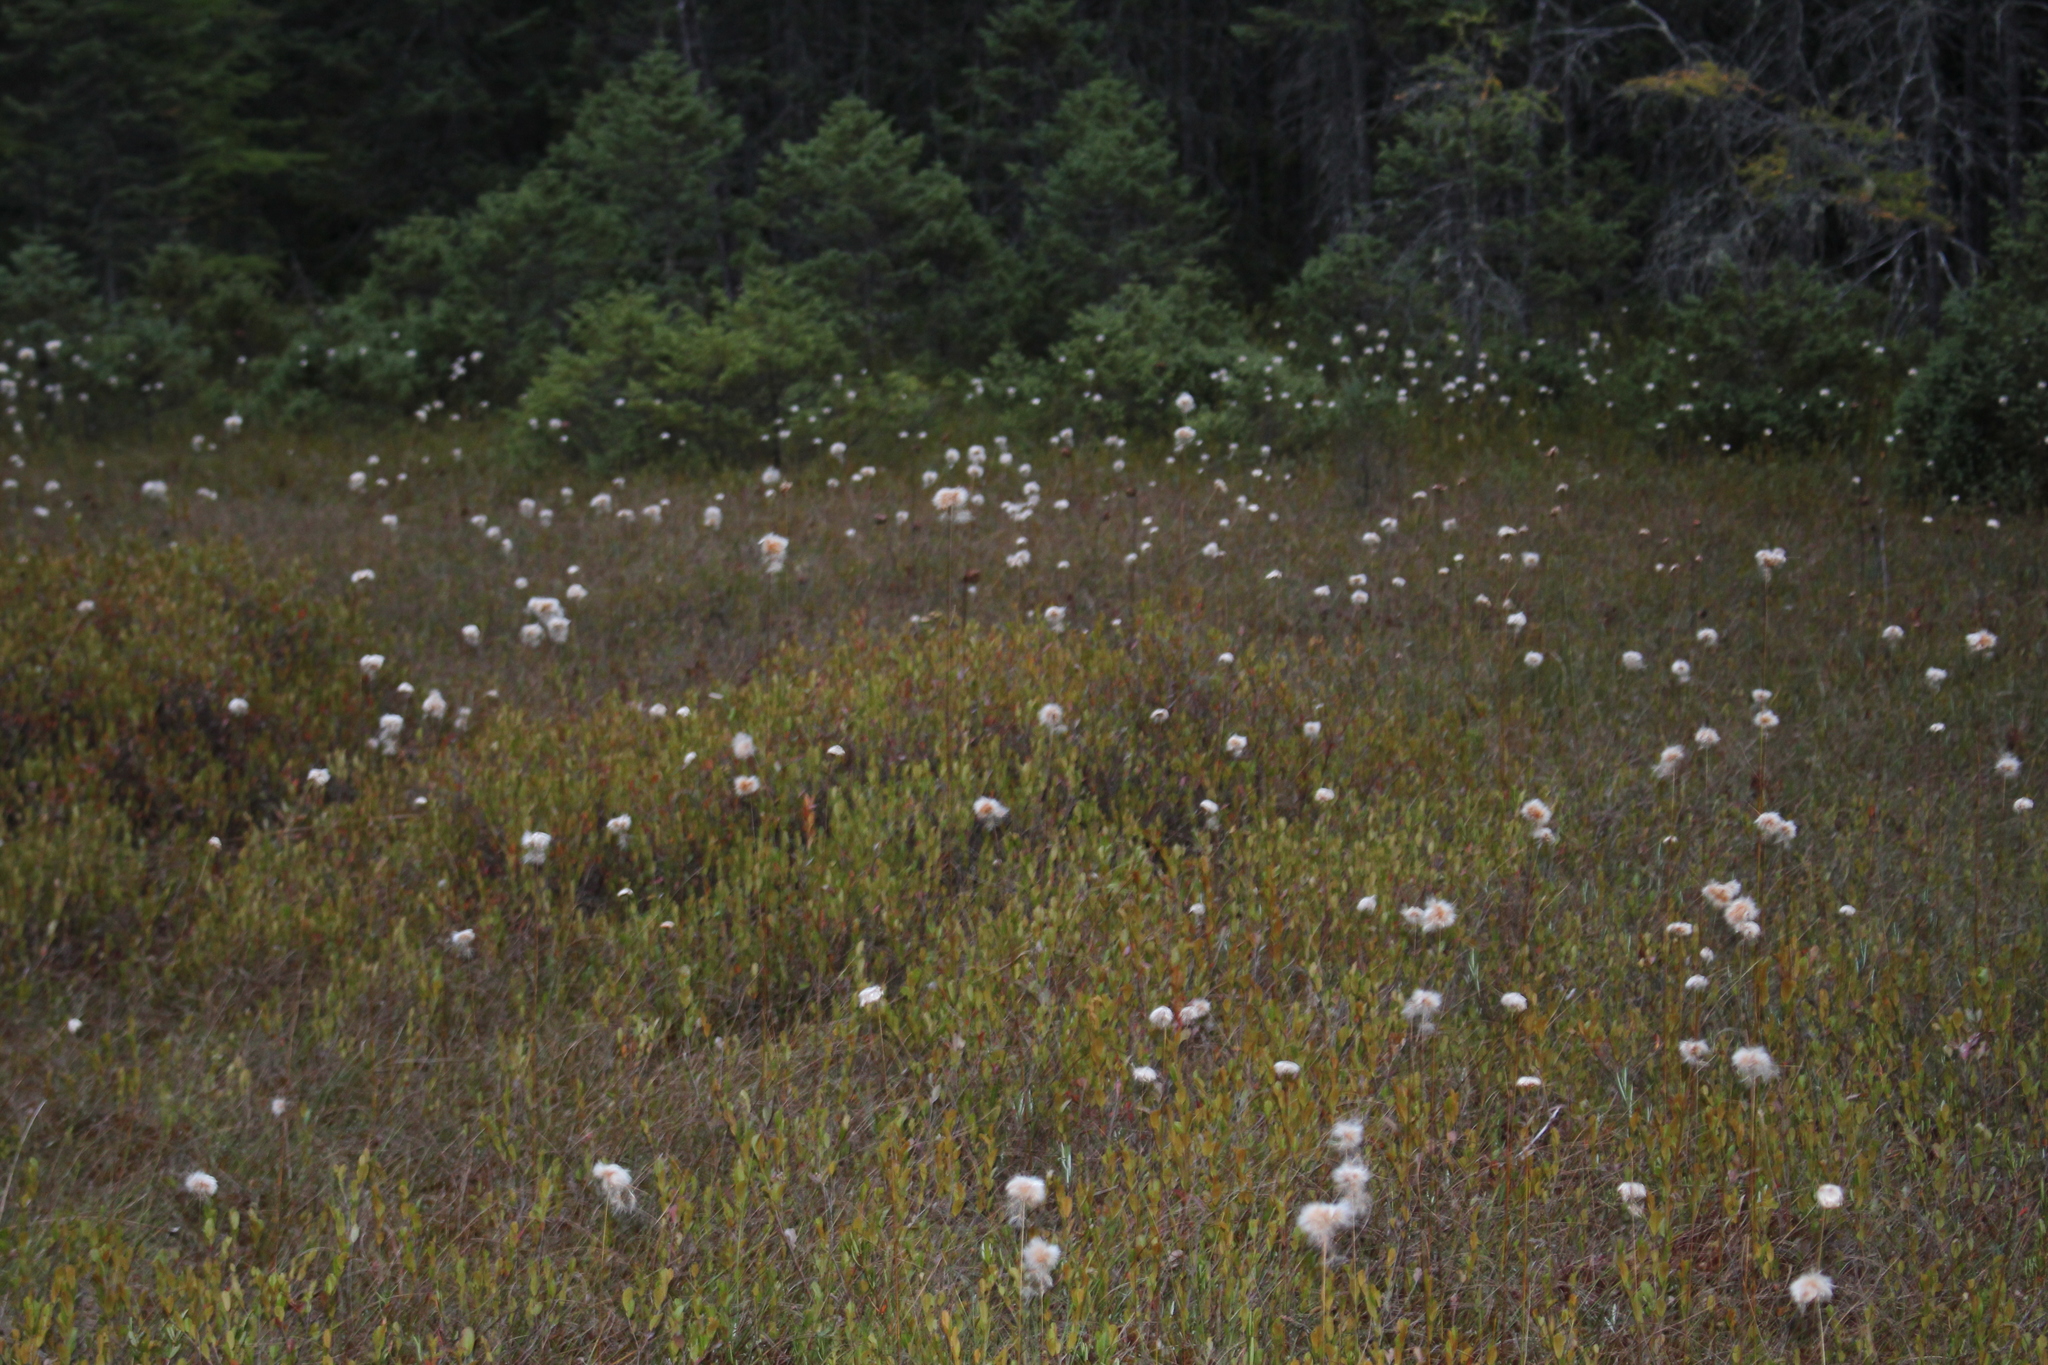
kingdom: Plantae
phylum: Tracheophyta
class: Liliopsida
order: Poales
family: Cyperaceae
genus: Eriophorum
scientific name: Eriophorum virginicum
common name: Tawny cottongrass
